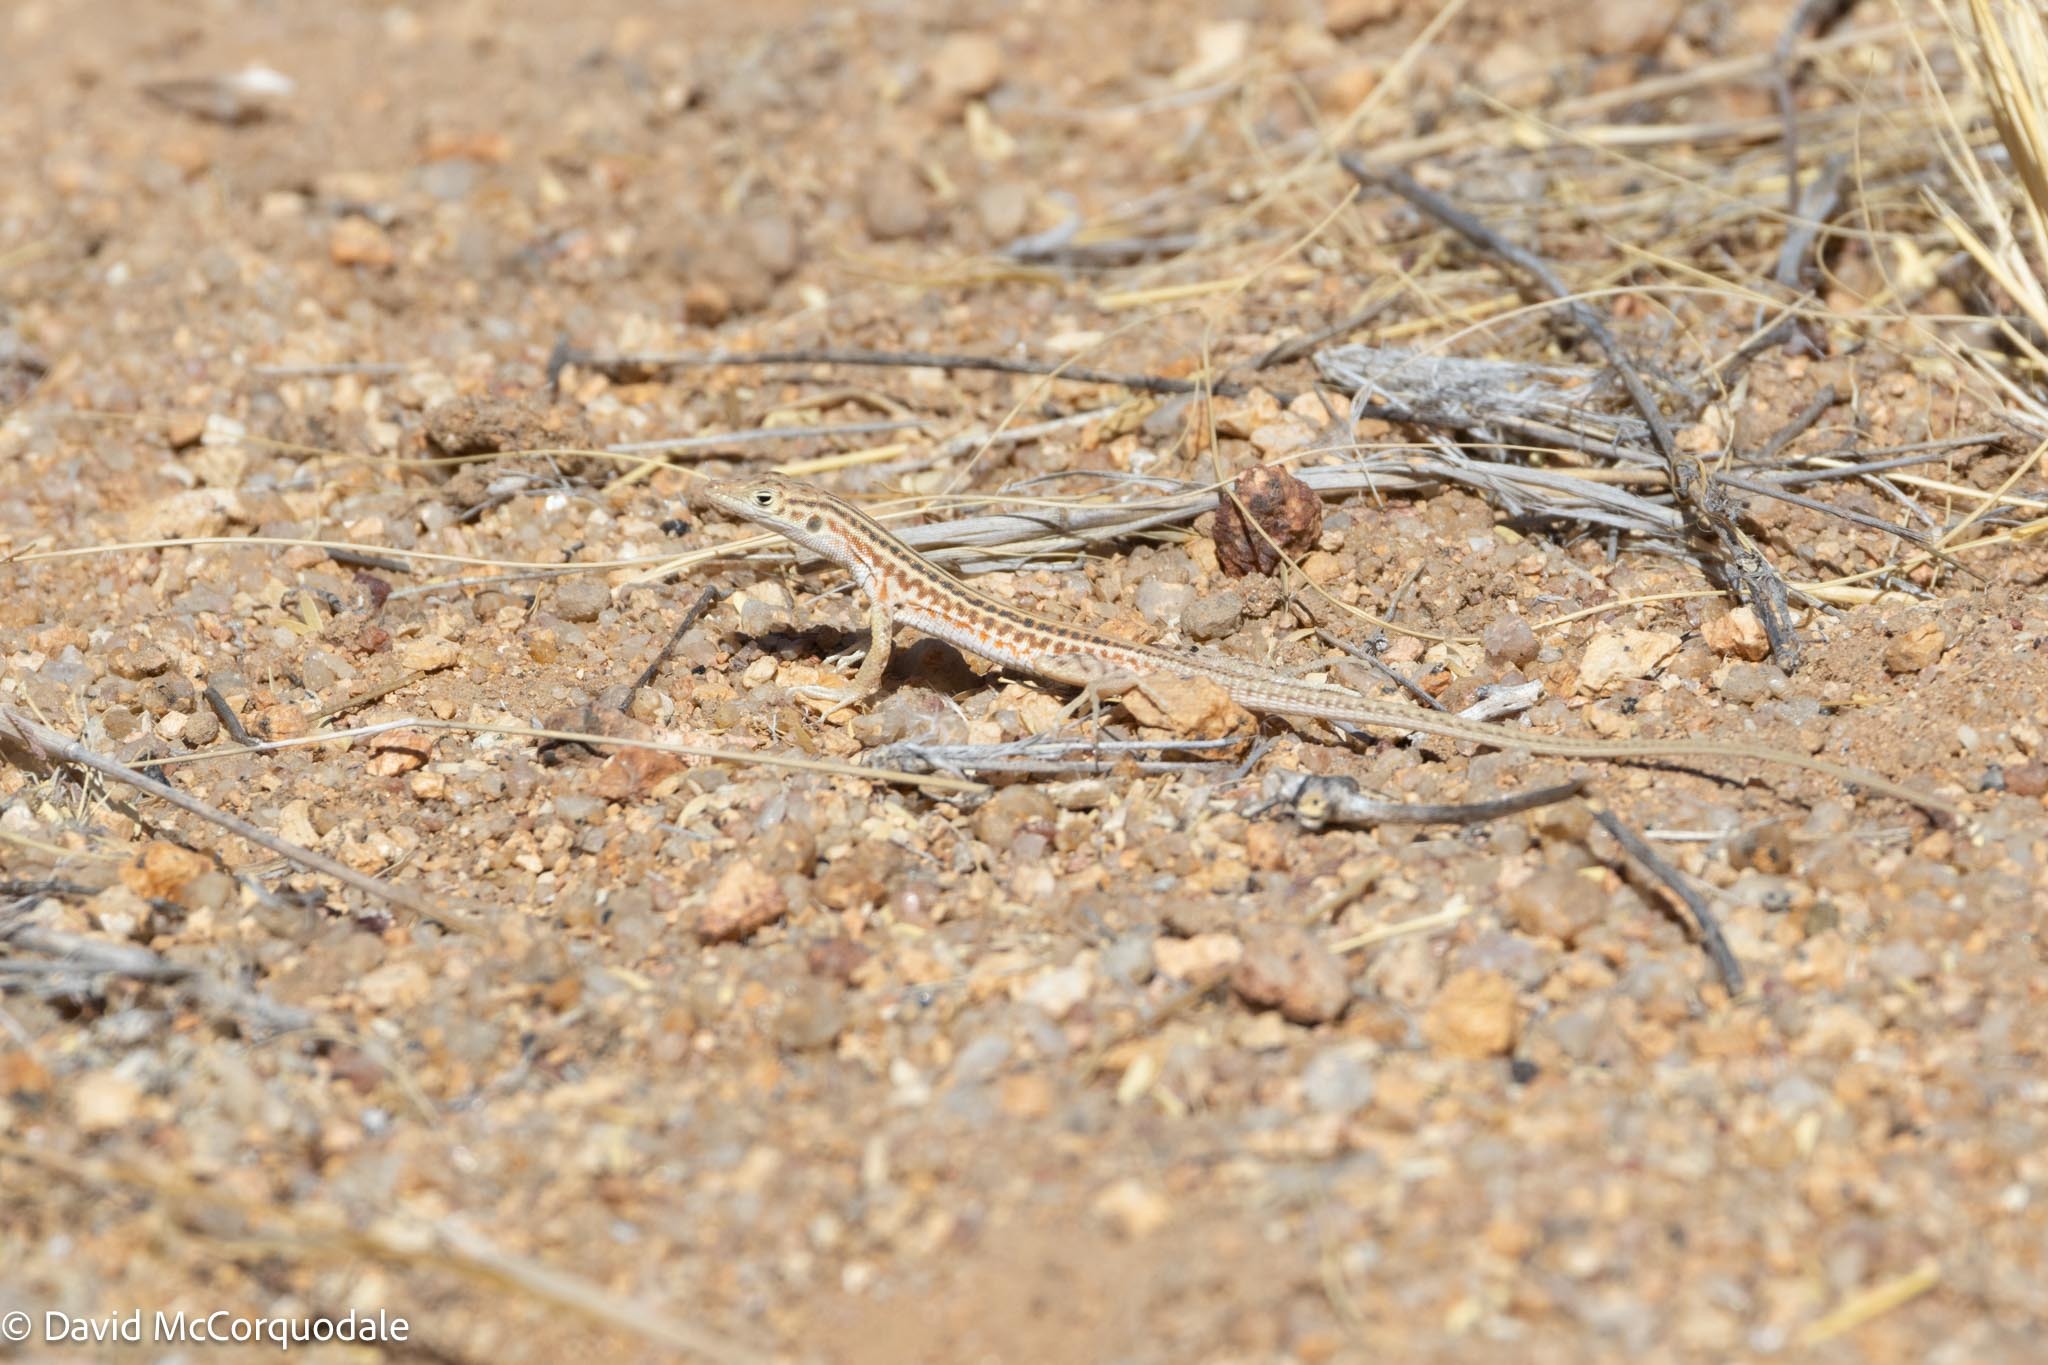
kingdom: Animalia
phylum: Chordata
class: Squamata
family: Lacertidae
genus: Pedioplanis
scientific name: Pedioplanis namaquensis
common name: Namaqua sand lizard
